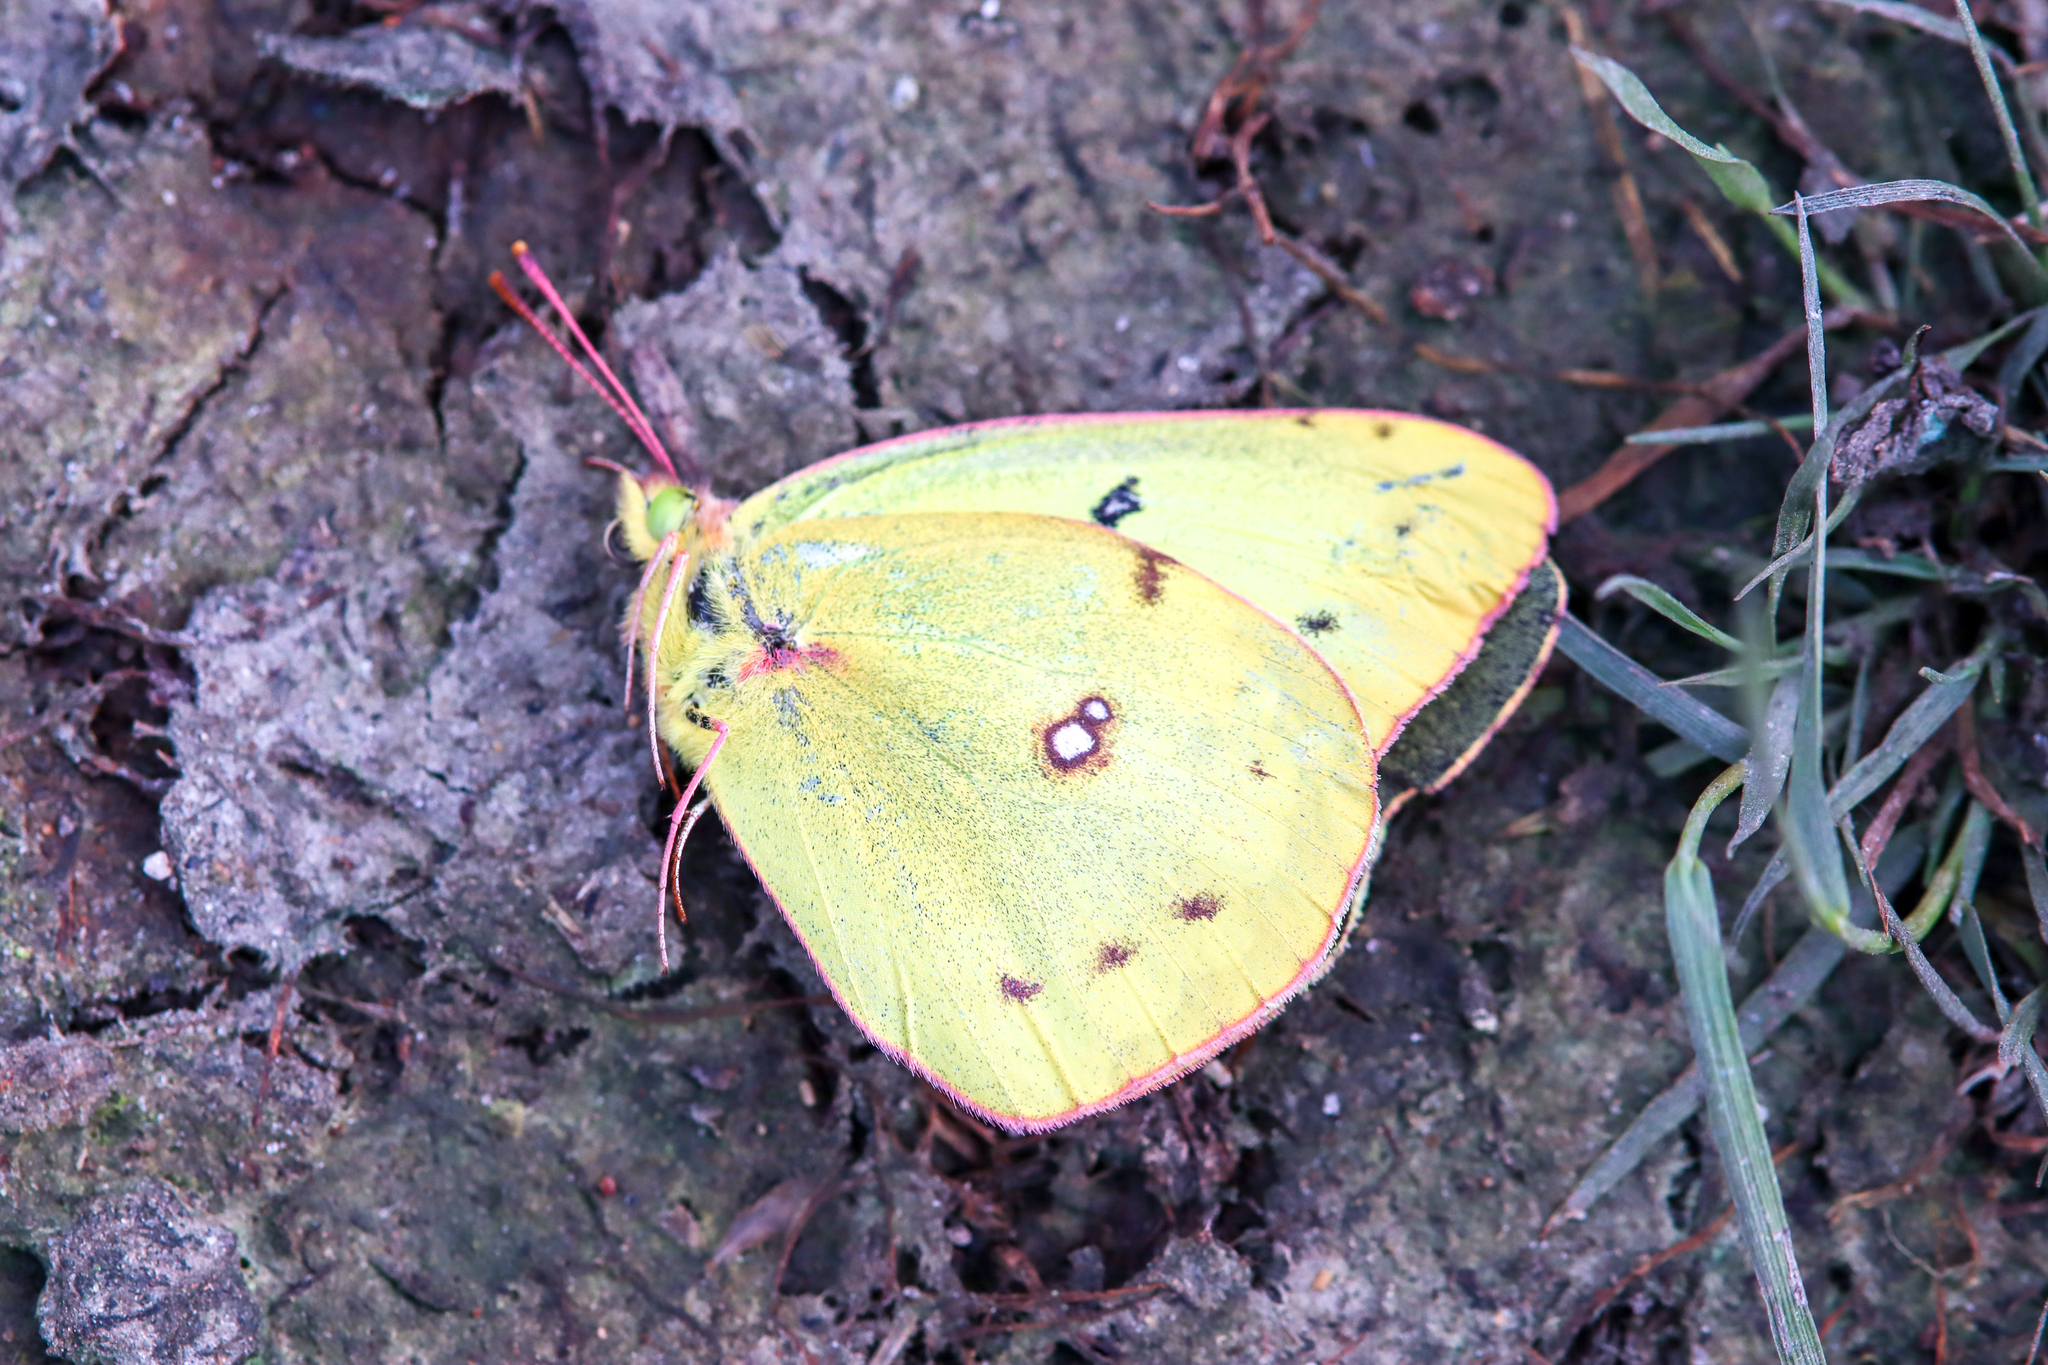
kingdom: Animalia
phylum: Arthropoda
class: Insecta
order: Lepidoptera
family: Pieridae
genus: Colias
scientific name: Colias philodice
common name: Clouded sulphur
